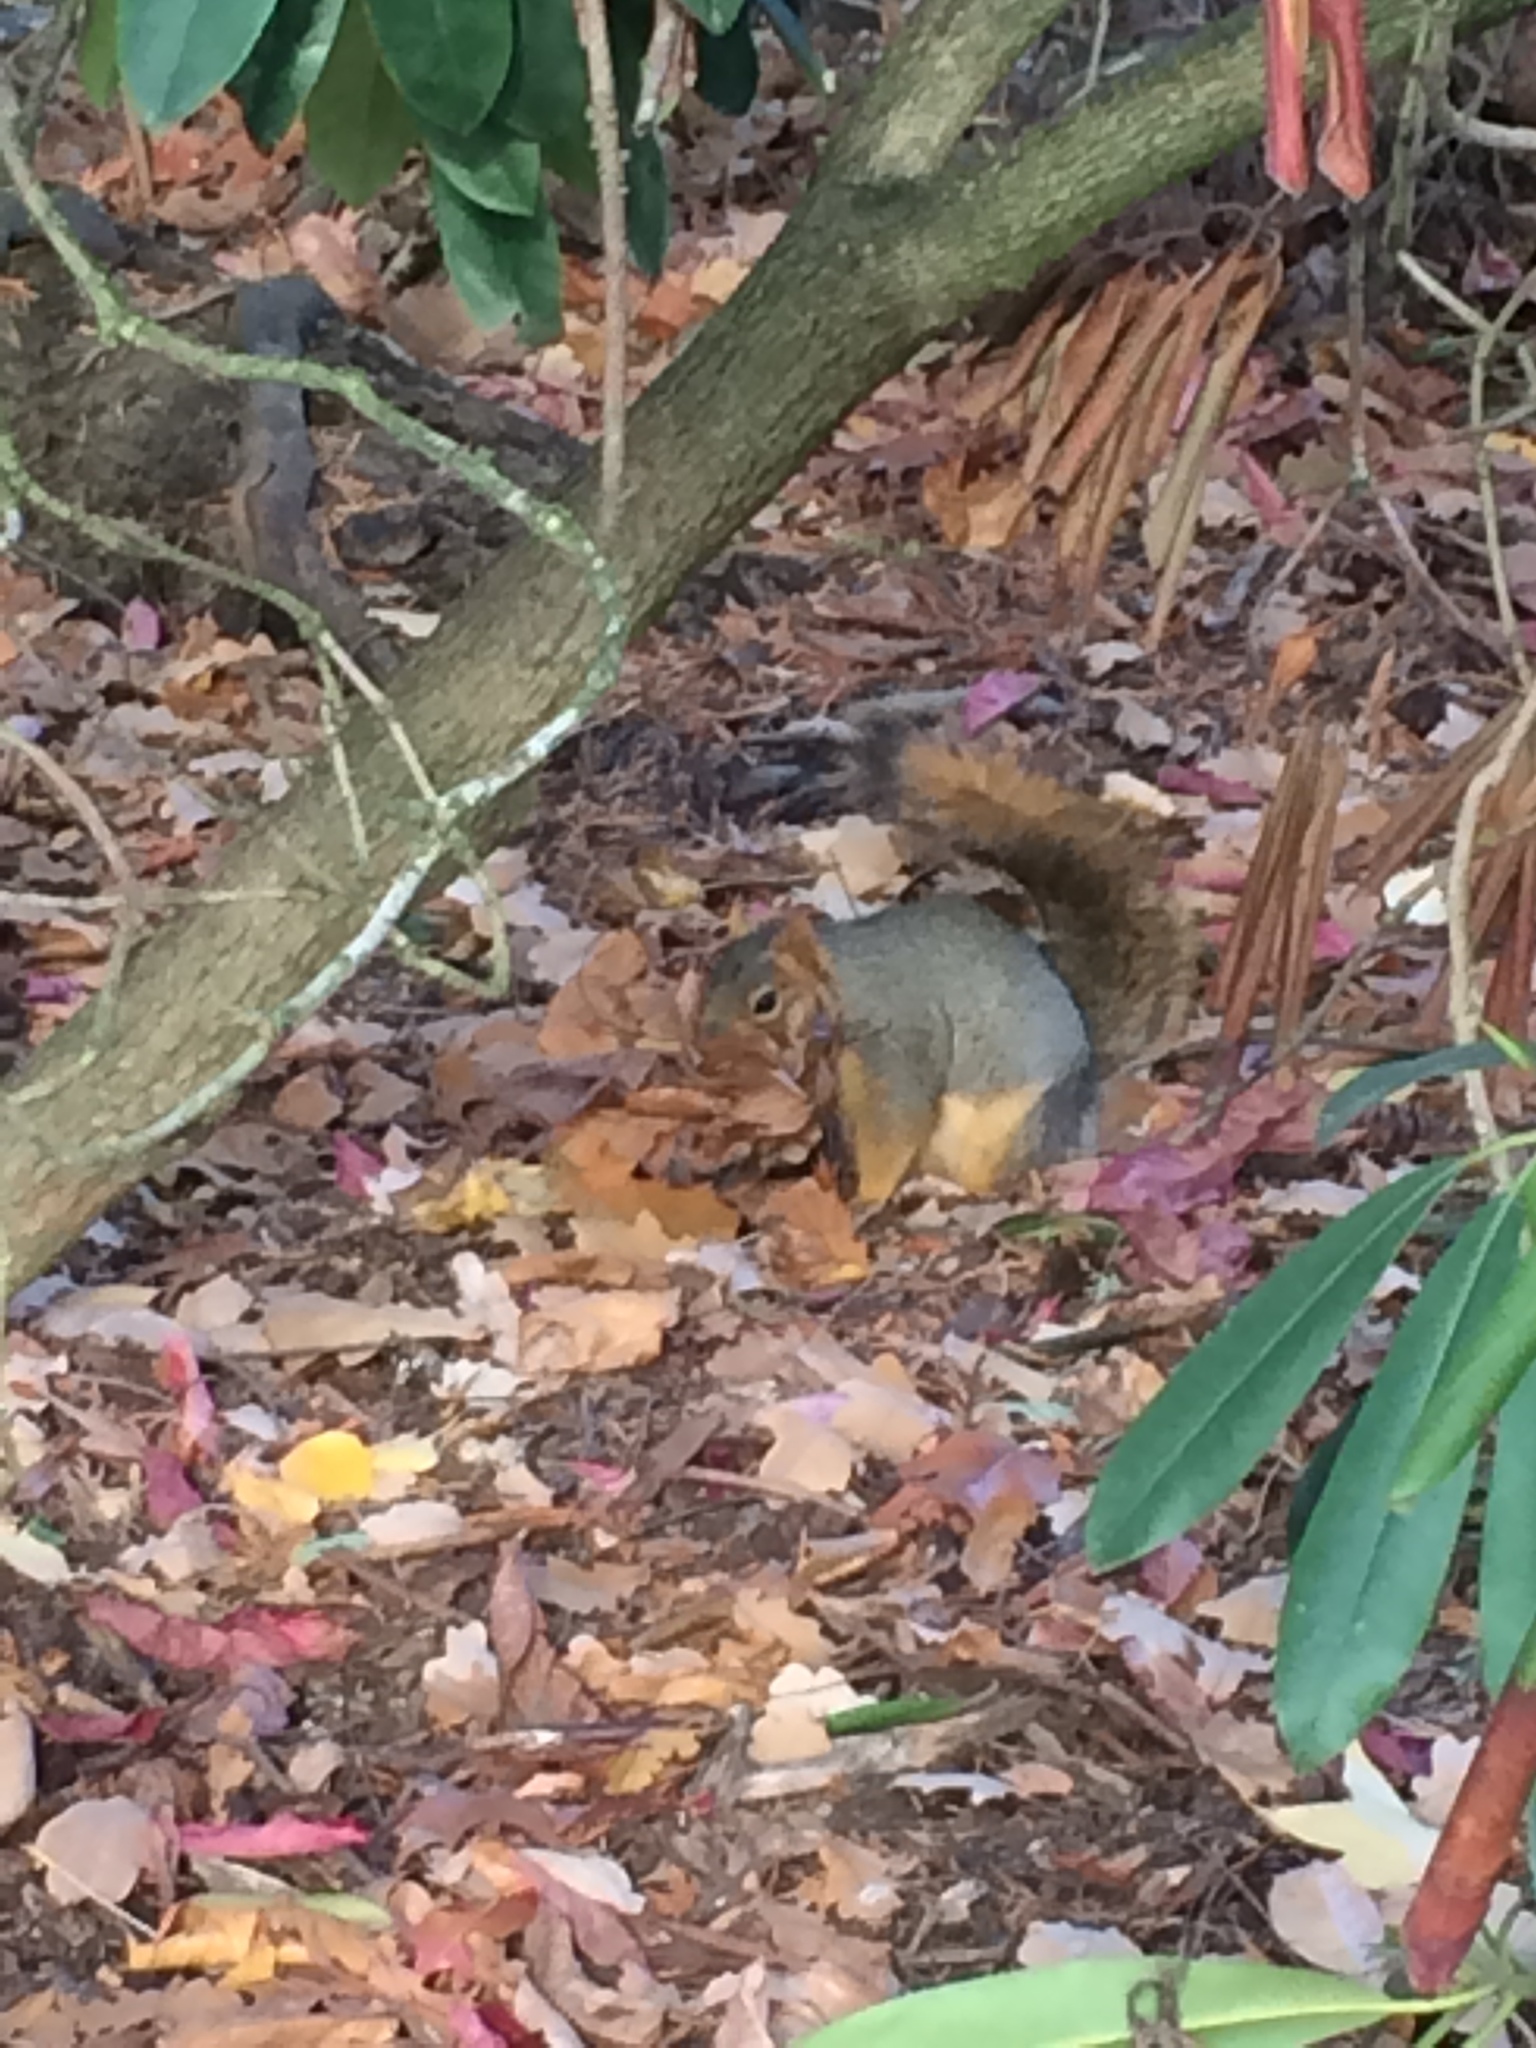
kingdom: Animalia
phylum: Chordata
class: Mammalia
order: Rodentia
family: Sciuridae
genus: Sciurus
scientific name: Sciurus niger
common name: Fox squirrel
